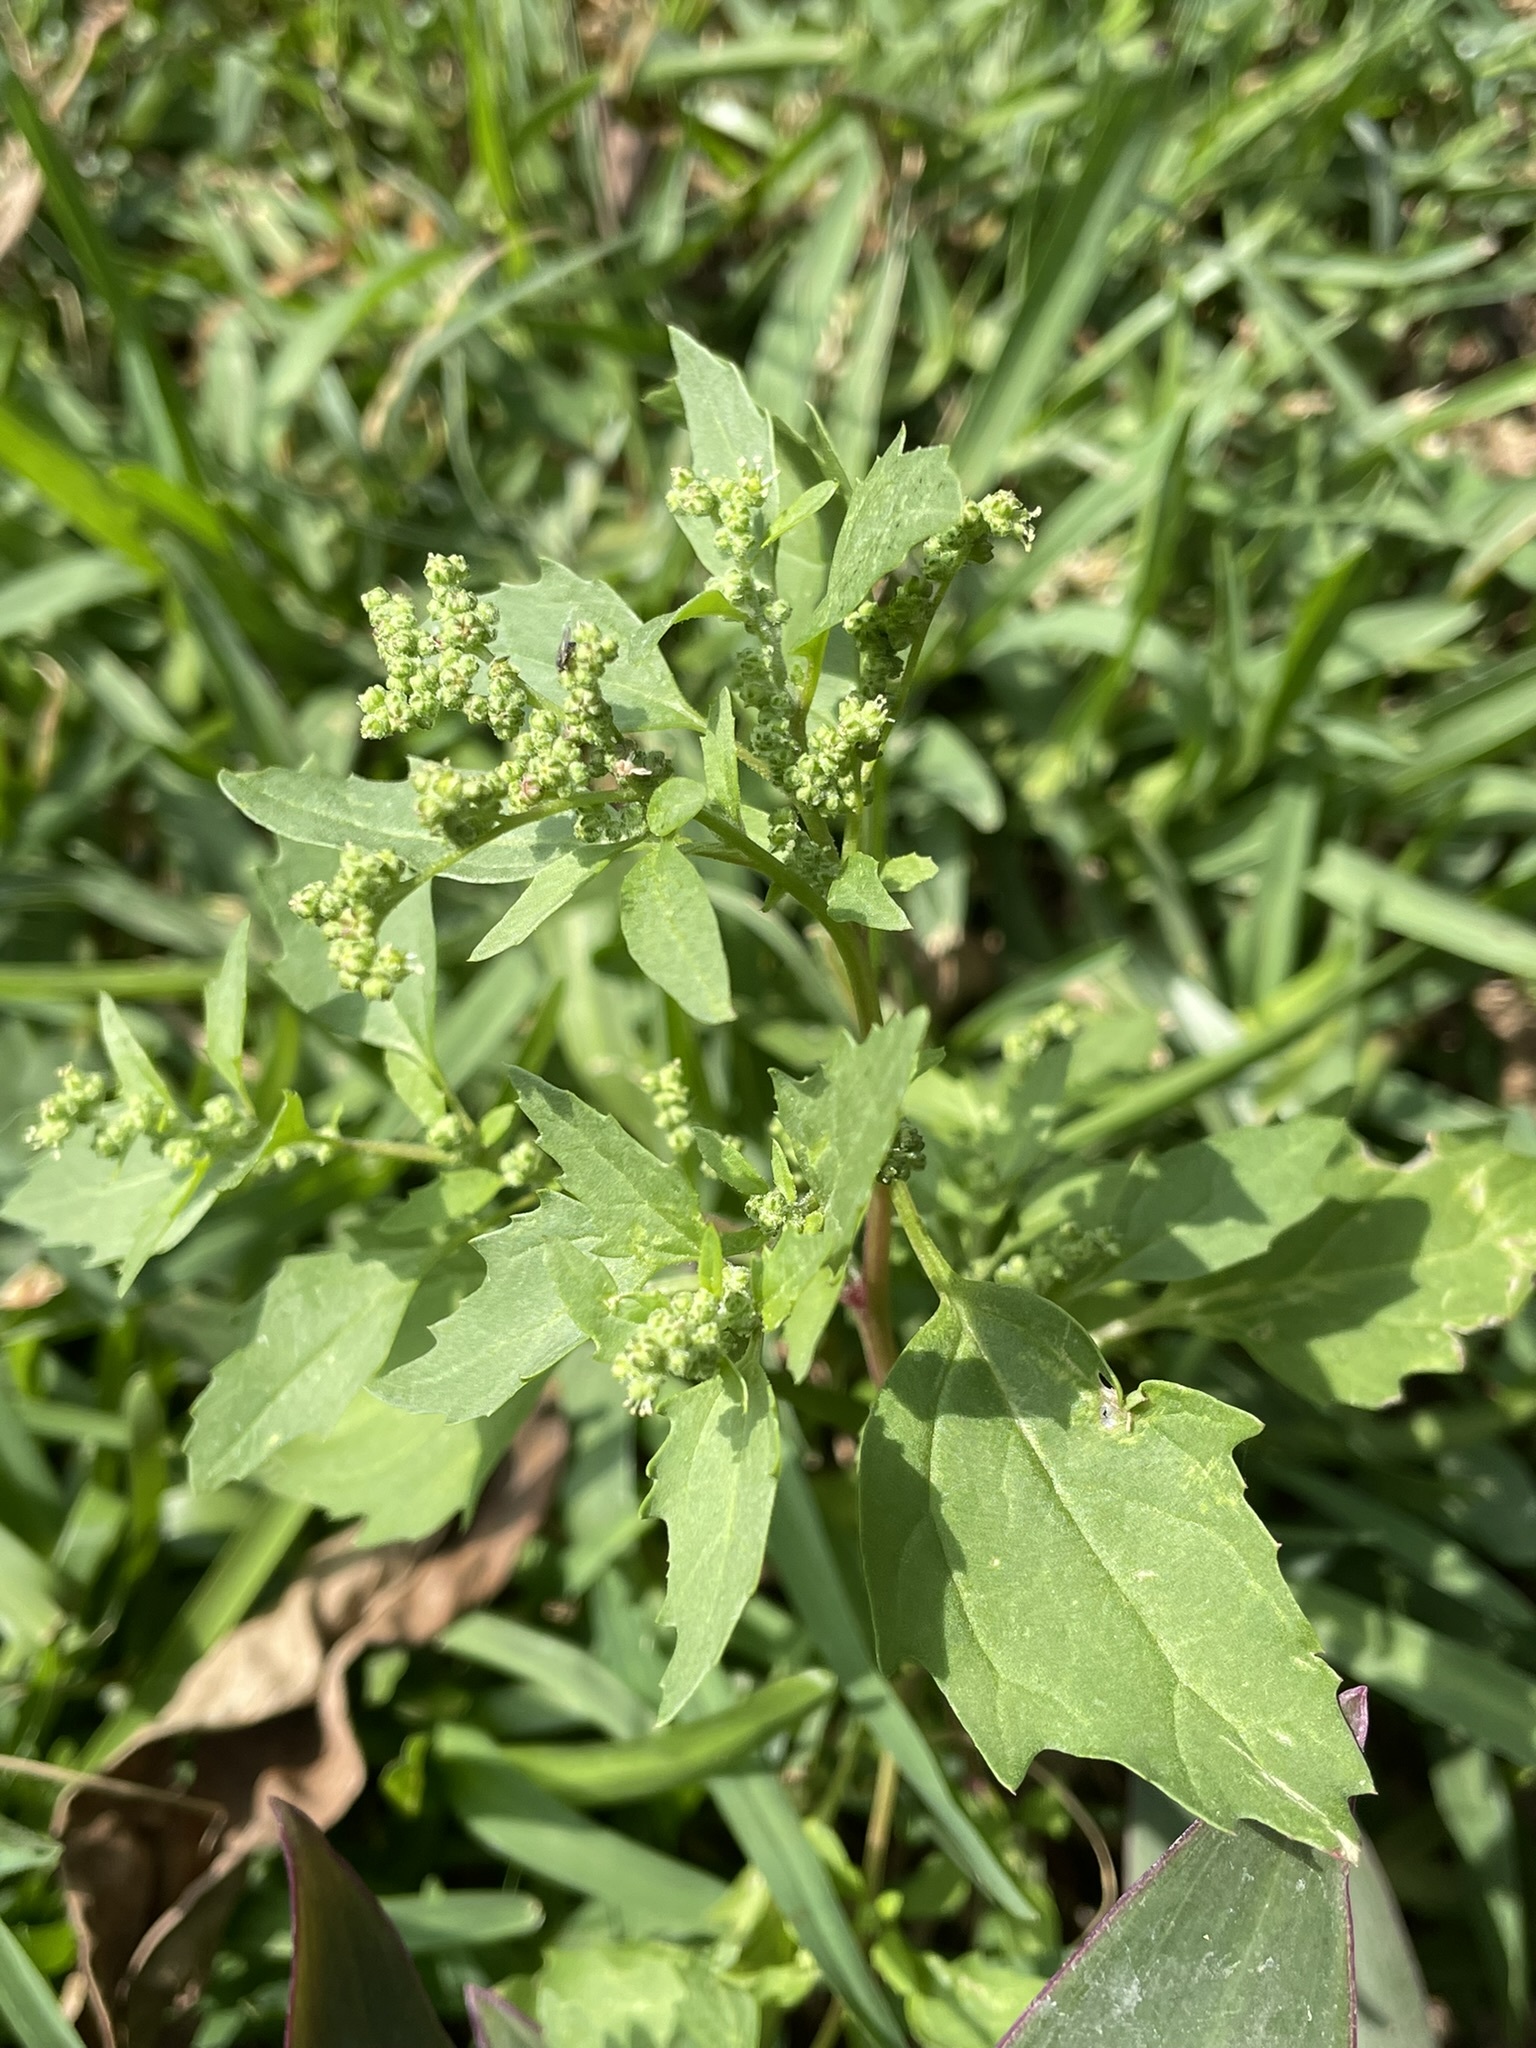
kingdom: Plantae
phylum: Tracheophyta
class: Magnoliopsida
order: Caryophyllales
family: Amaranthaceae
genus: Chenopodiastrum
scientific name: Chenopodiastrum murale
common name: Sowbane
